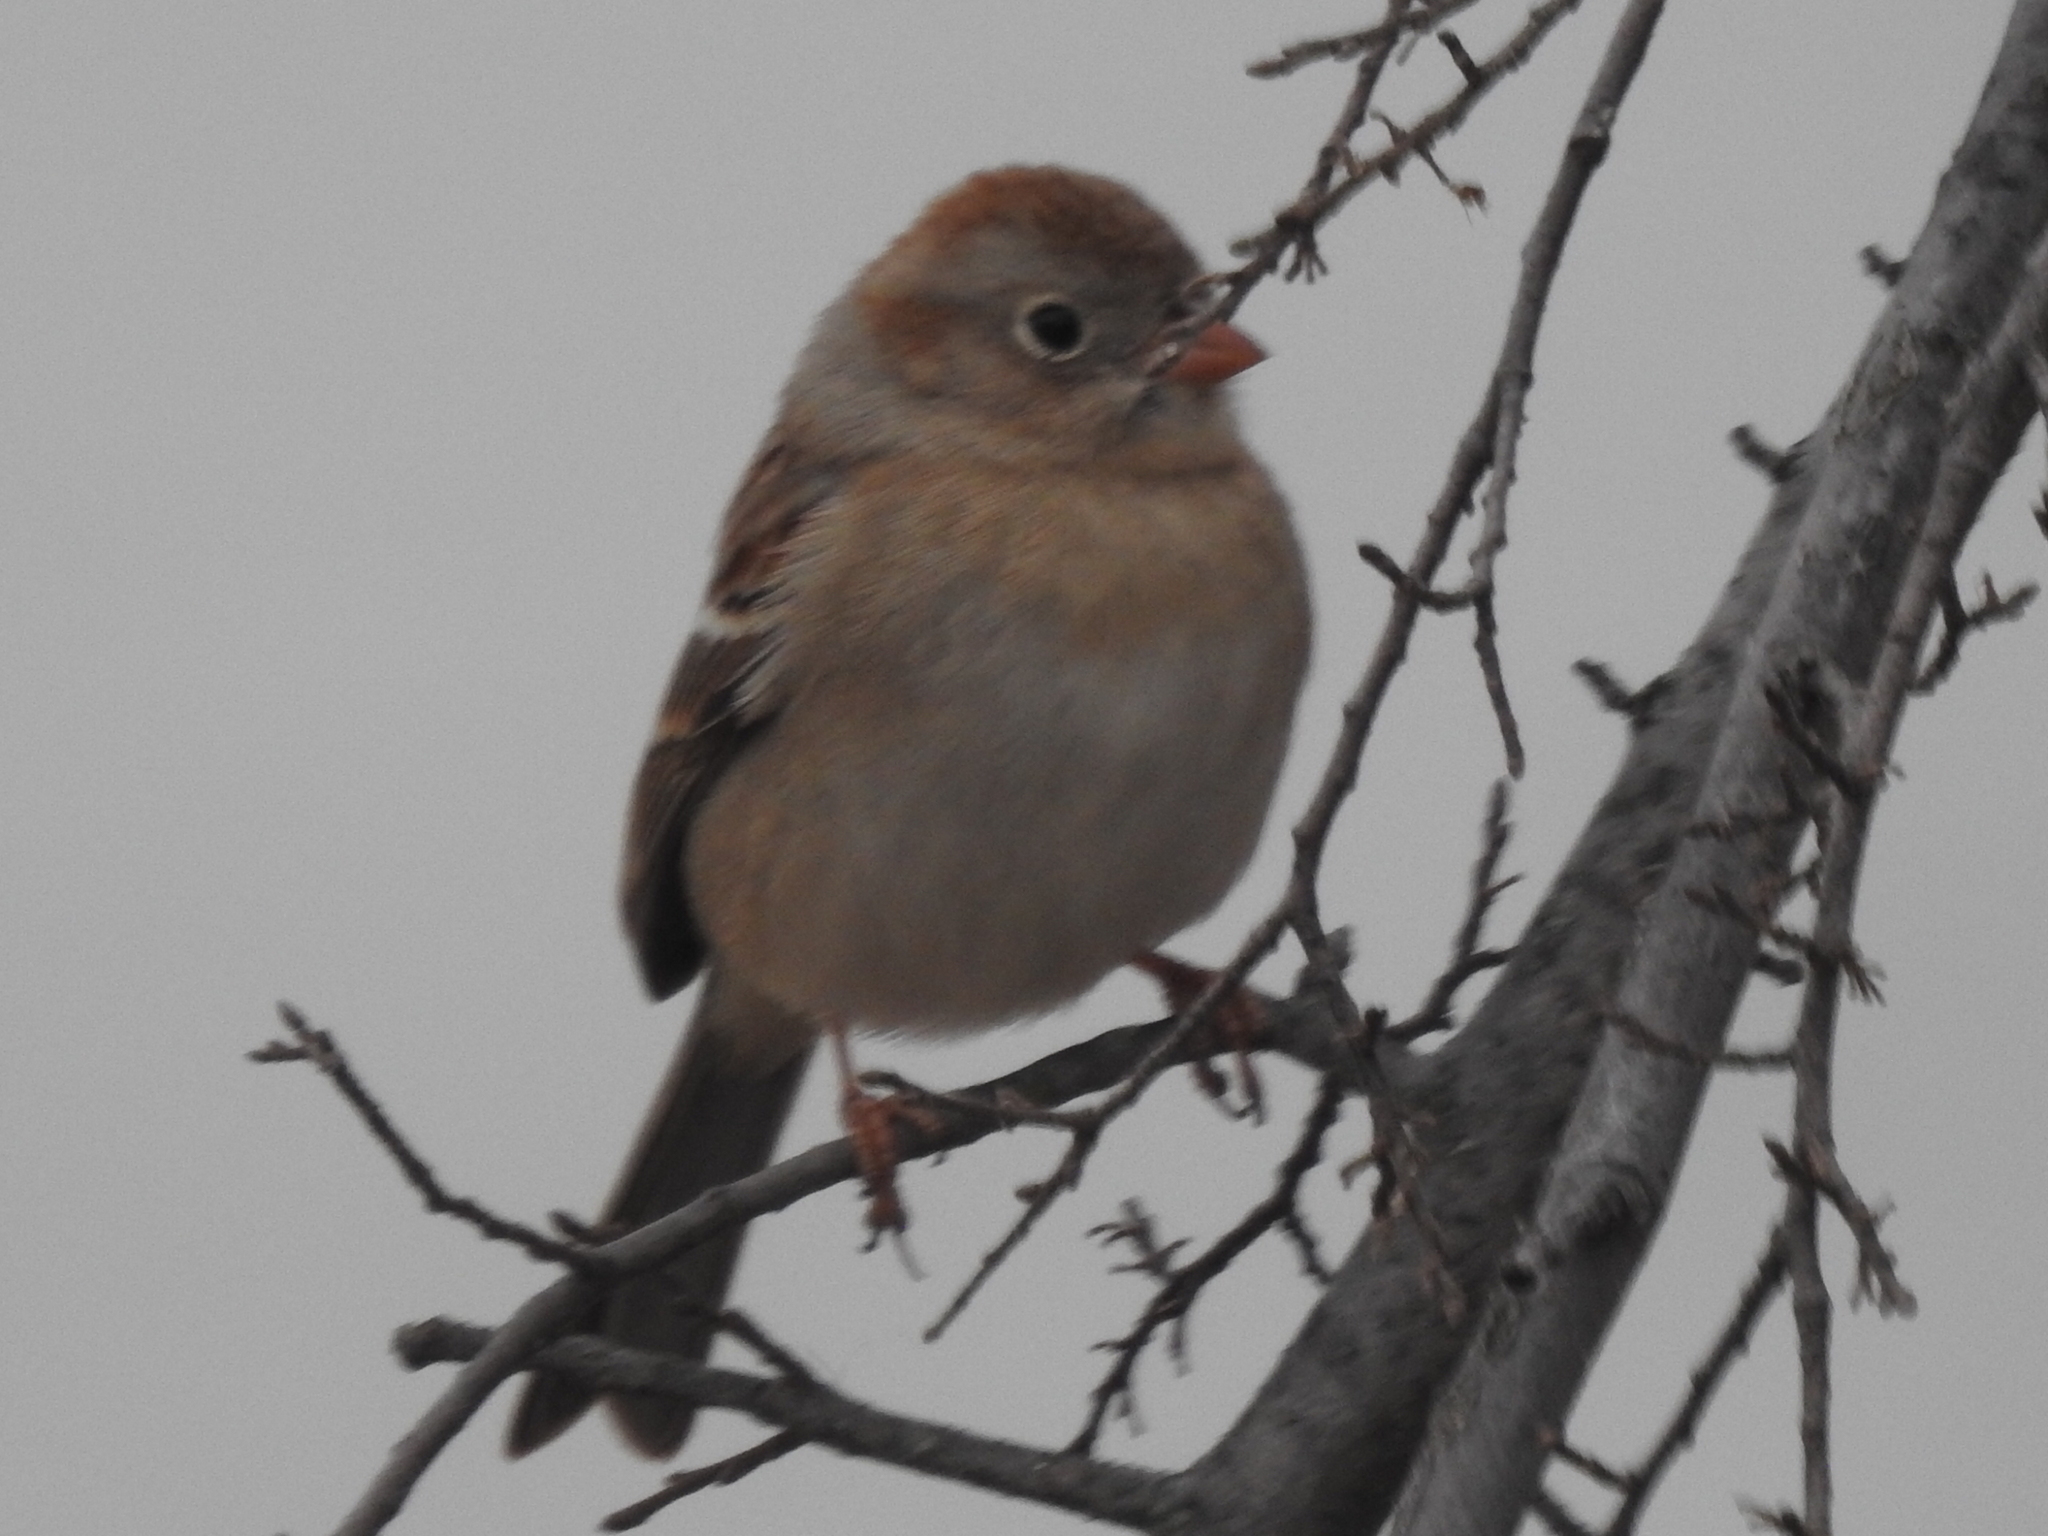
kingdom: Animalia
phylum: Chordata
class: Aves
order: Passeriformes
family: Passerellidae
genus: Spizella
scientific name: Spizella pusilla
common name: Field sparrow
